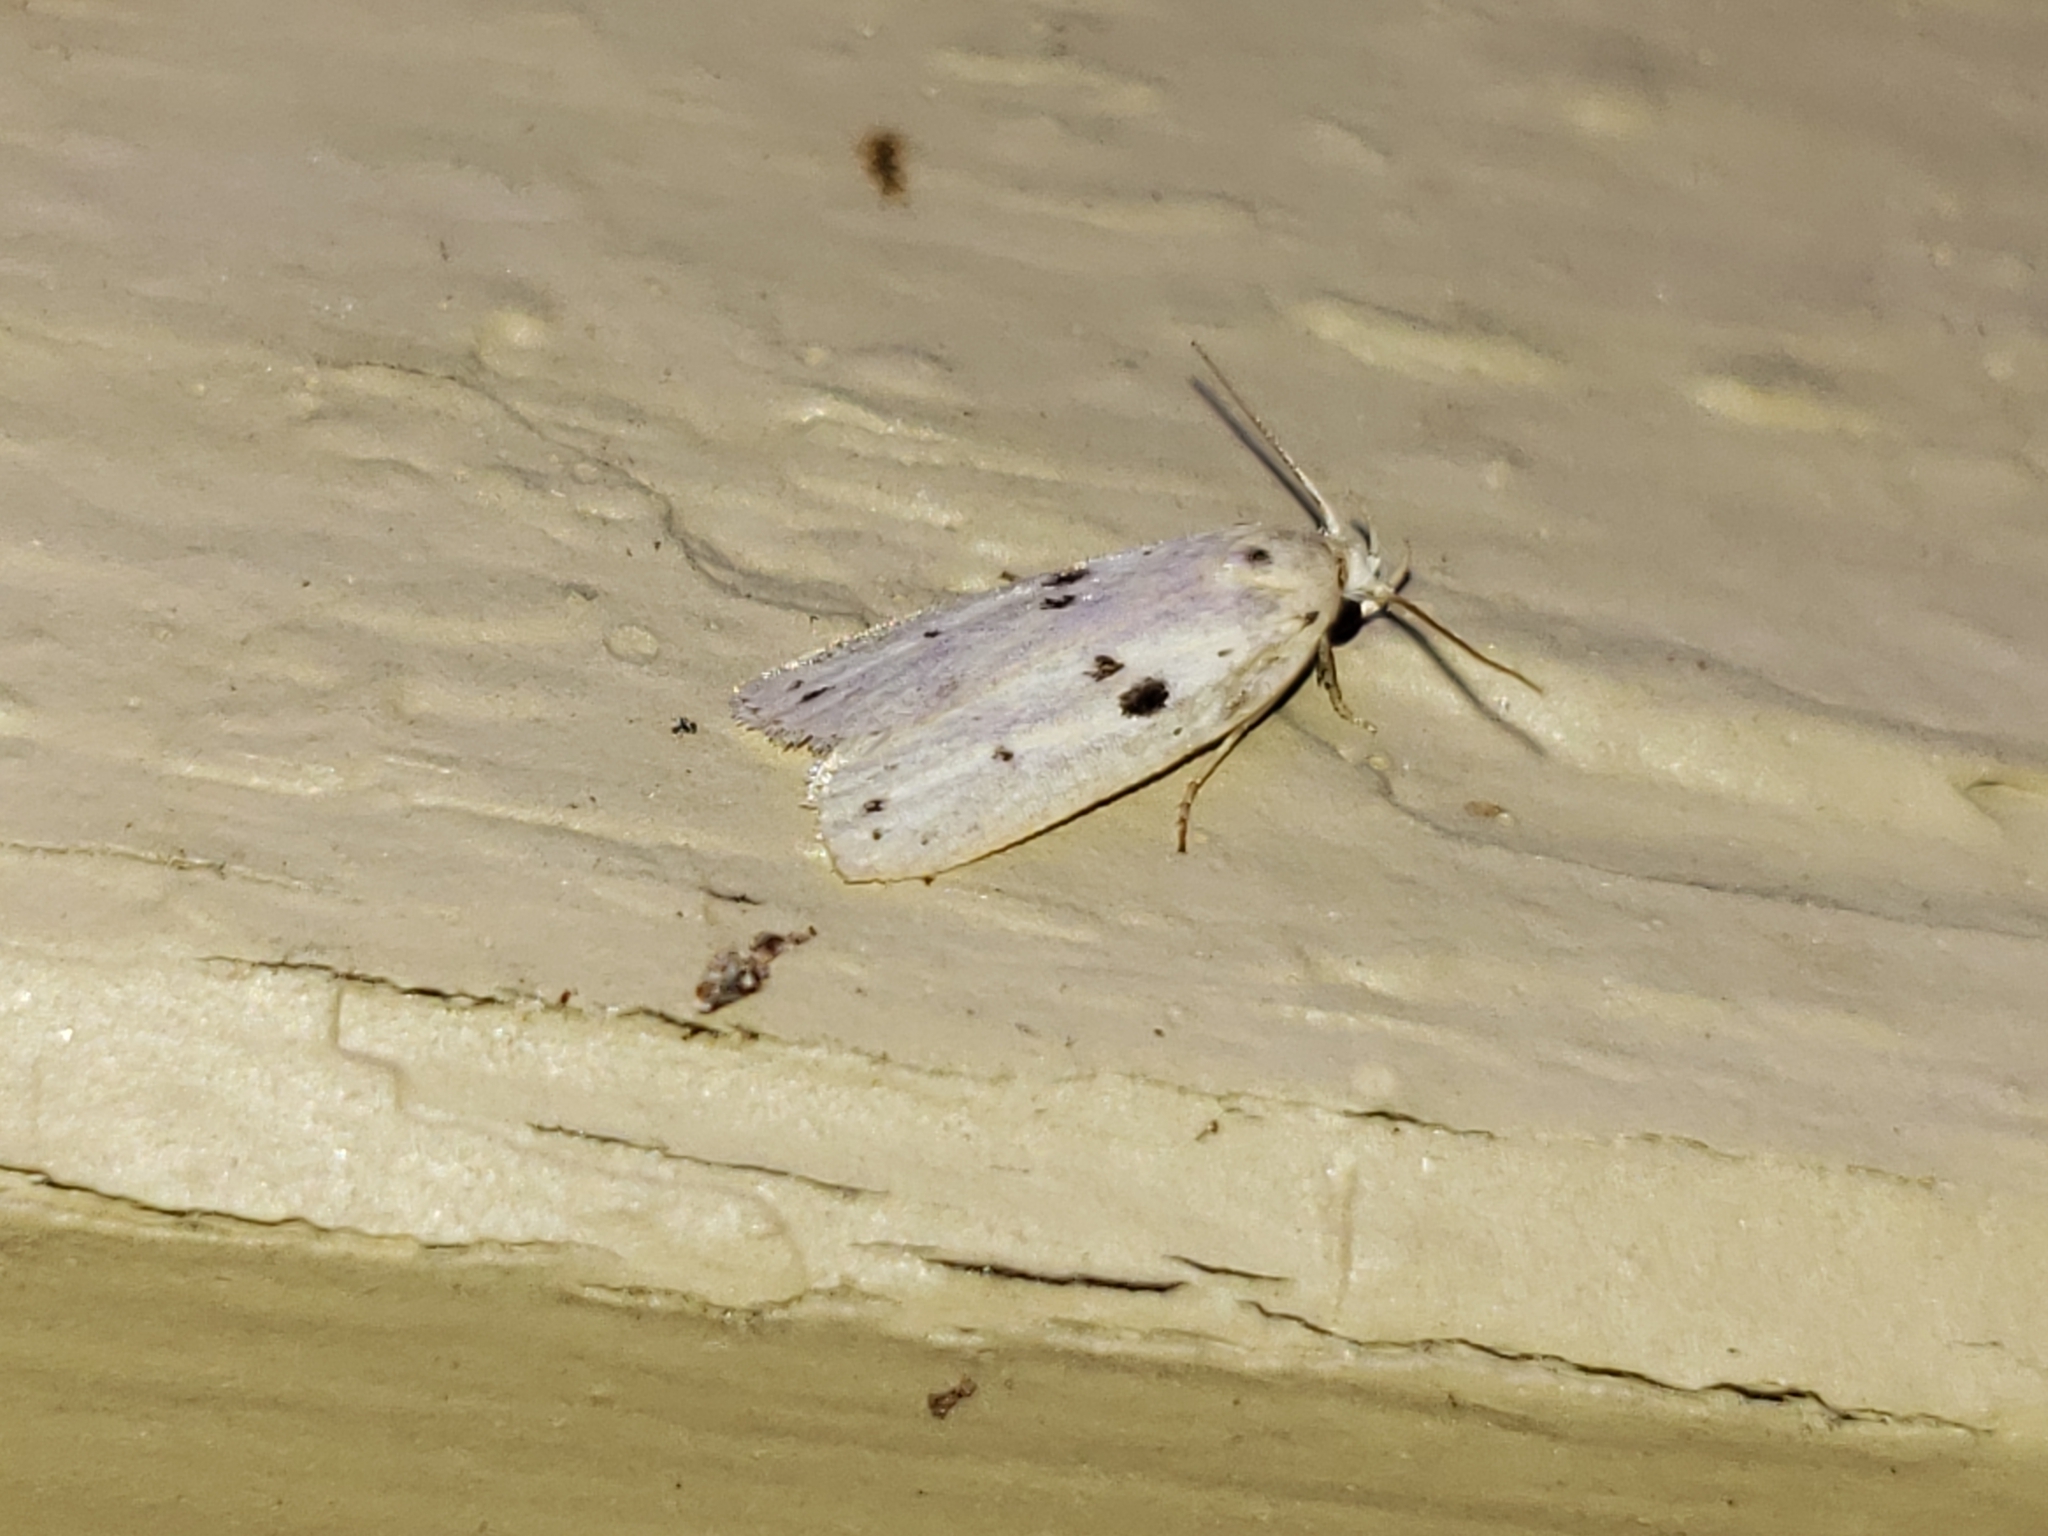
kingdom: Animalia
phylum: Arthropoda
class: Insecta
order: Lepidoptera
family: Peleopodidae
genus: Scythropiodes
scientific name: Scythropiodes issikii
